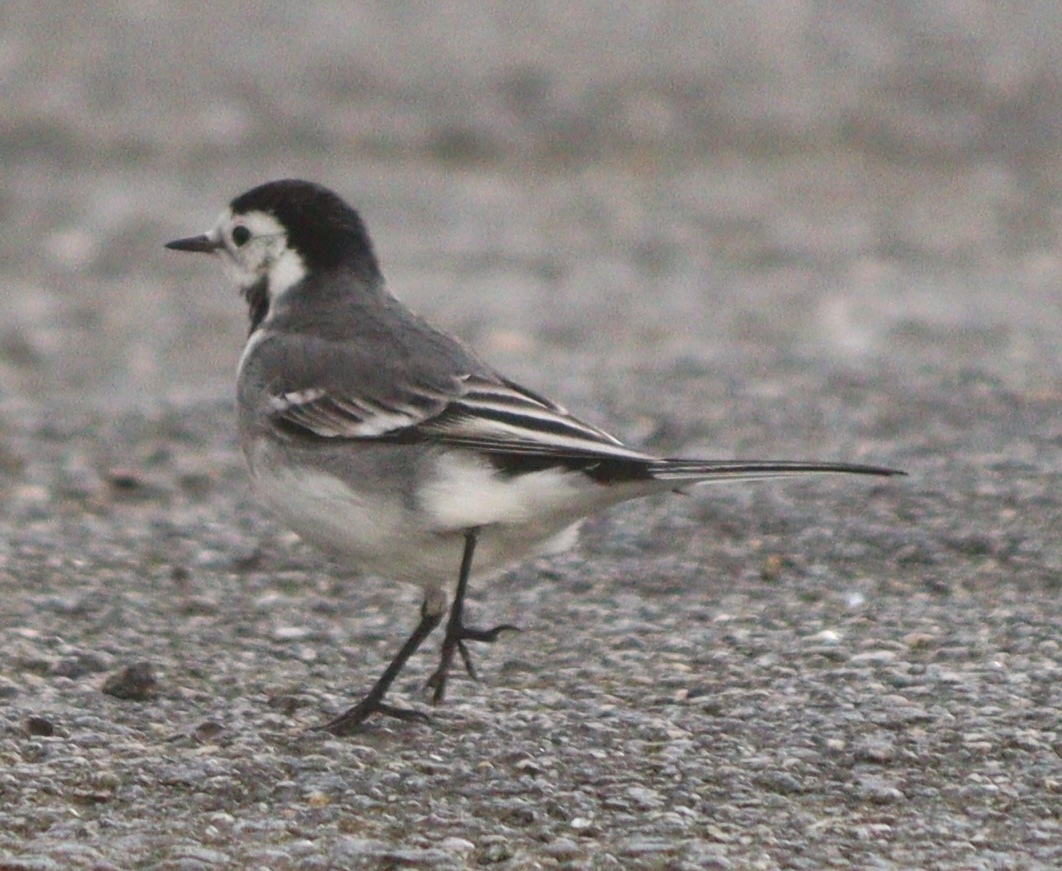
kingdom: Animalia
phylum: Chordata
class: Aves
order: Passeriformes
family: Motacillidae
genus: Motacilla
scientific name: Motacilla alba
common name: White wagtail
